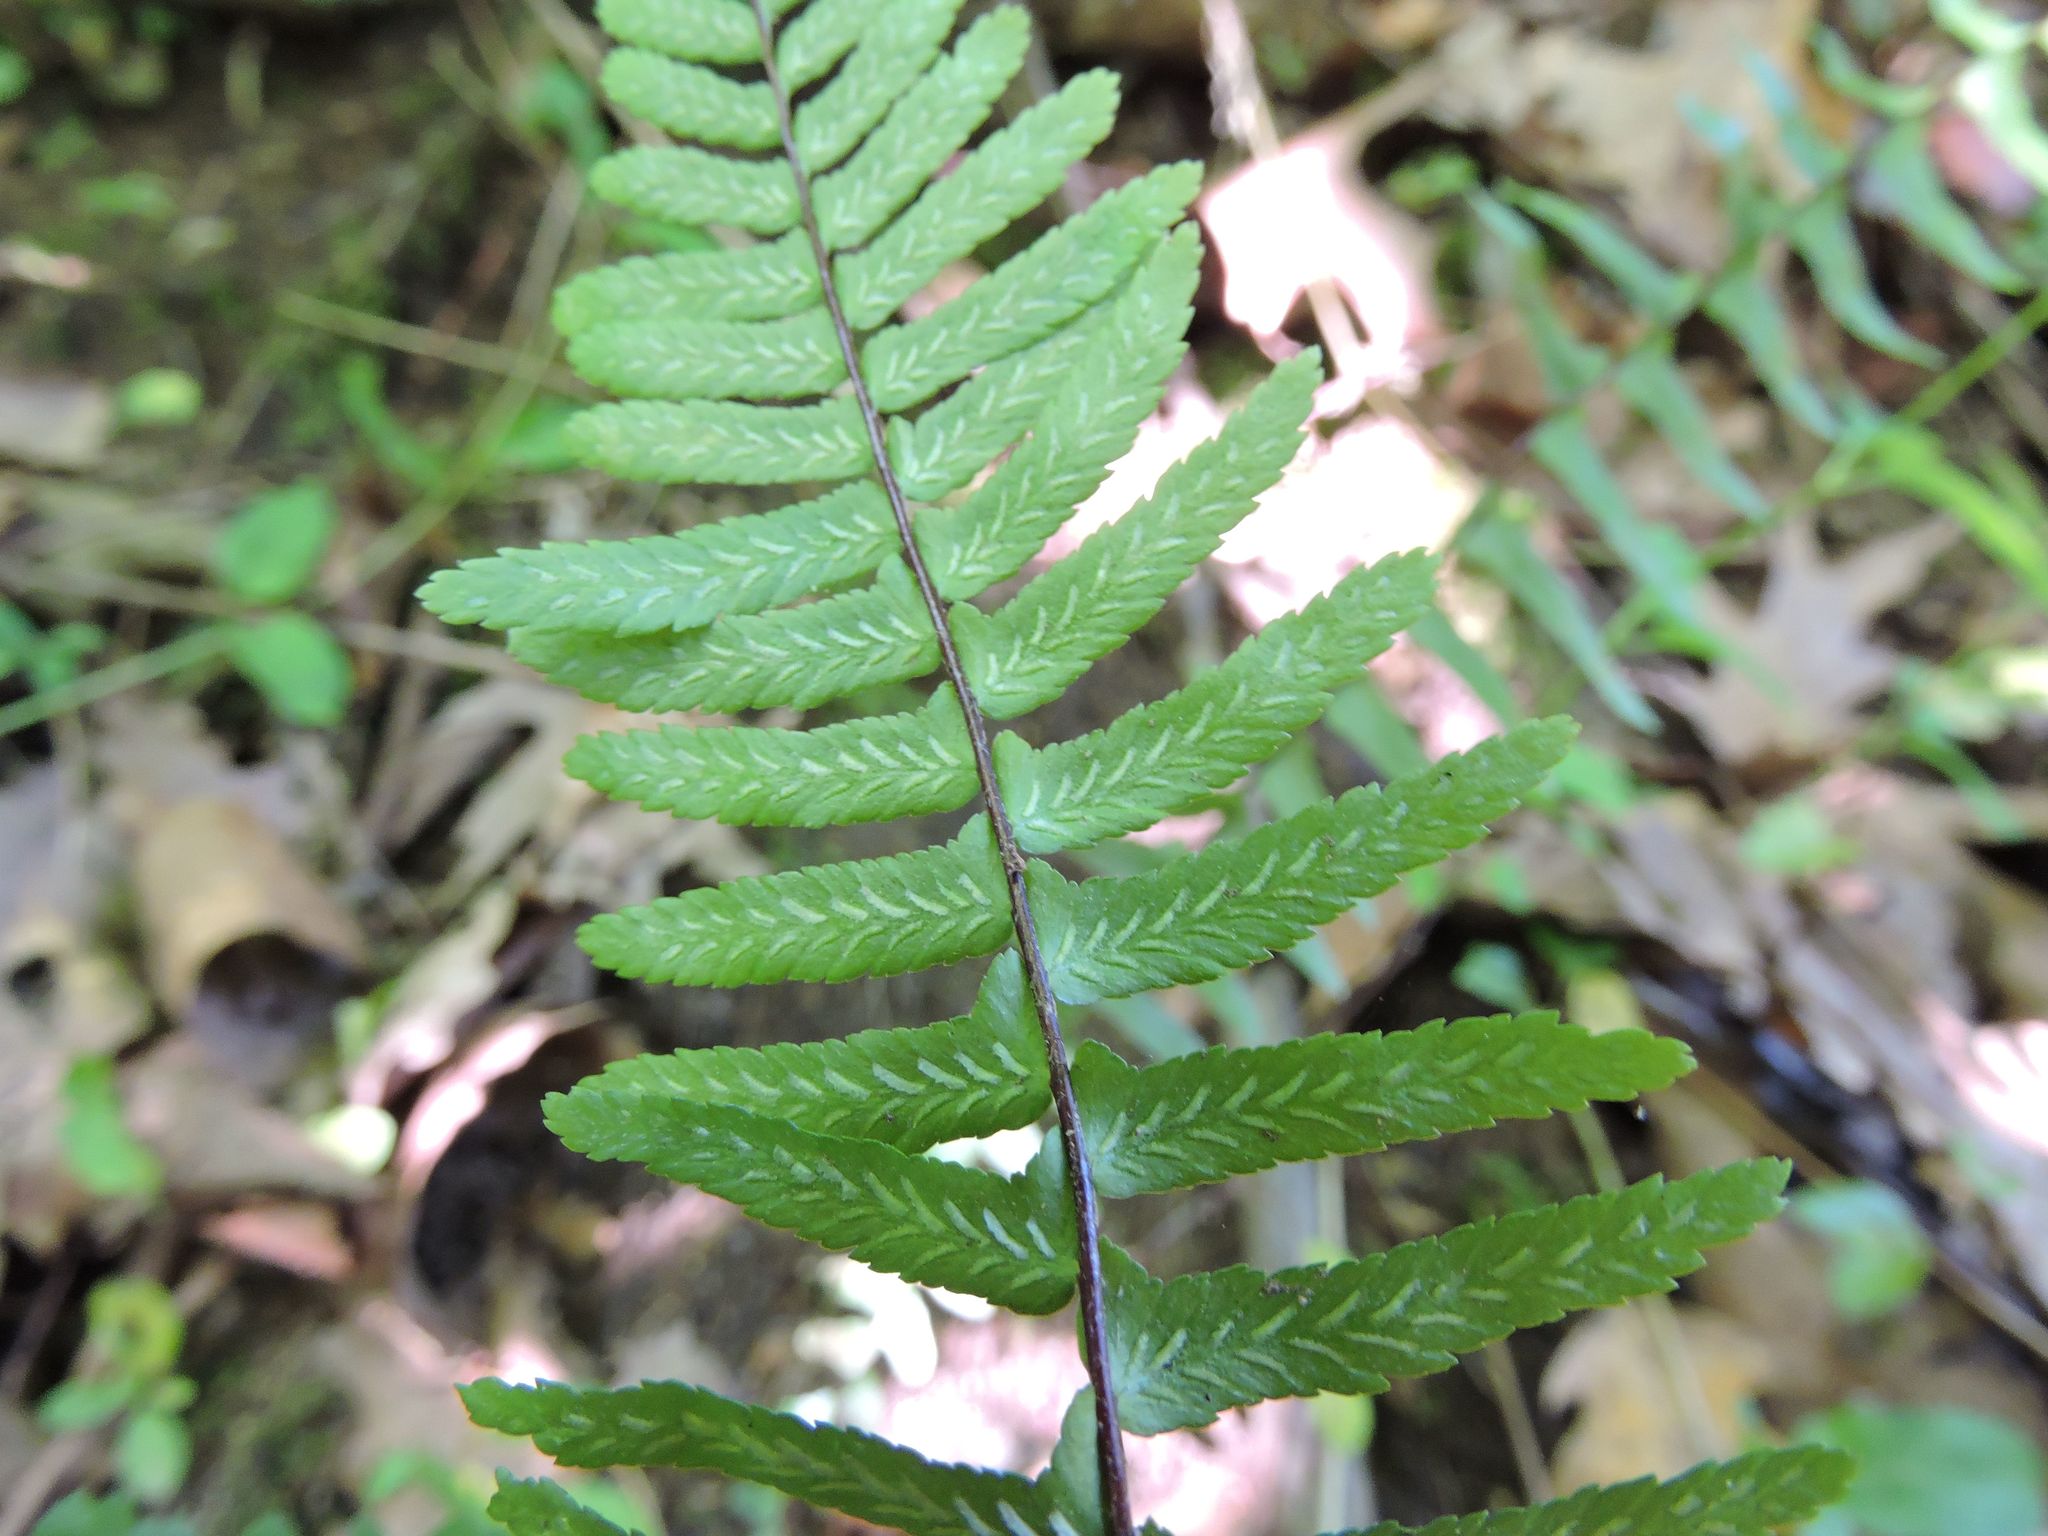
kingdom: Plantae
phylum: Tracheophyta
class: Polypodiopsida
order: Polypodiales
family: Aspleniaceae
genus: Asplenium
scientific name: Asplenium platyneuron
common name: Ebony spleenwort
